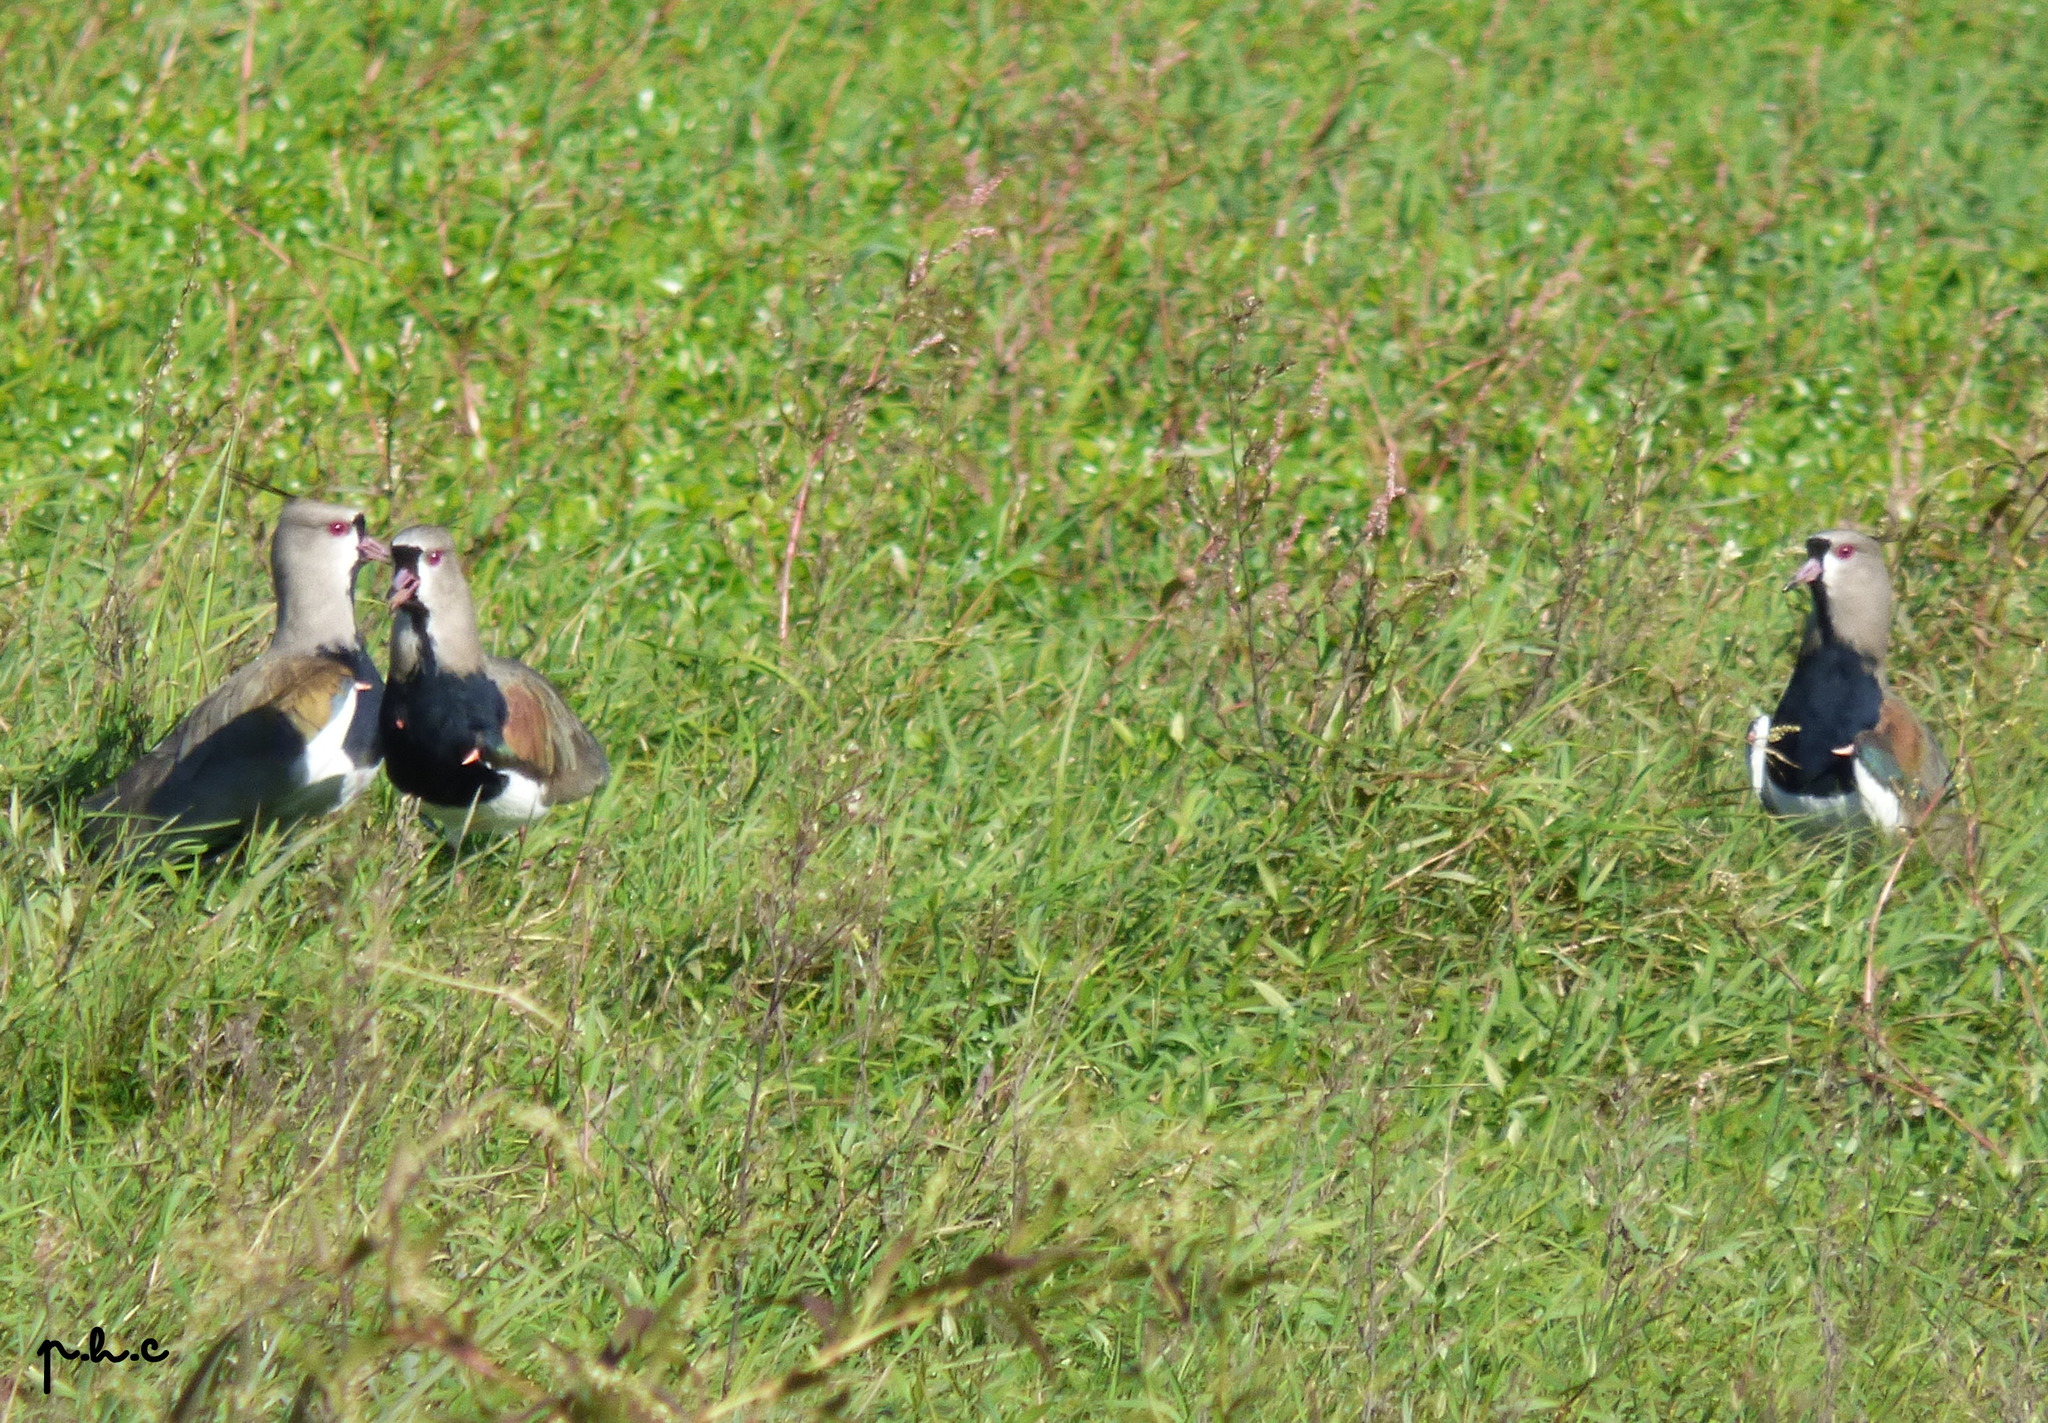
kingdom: Animalia
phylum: Chordata
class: Aves
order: Charadriiformes
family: Charadriidae
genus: Vanellus
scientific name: Vanellus chilensis
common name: Southern lapwing
